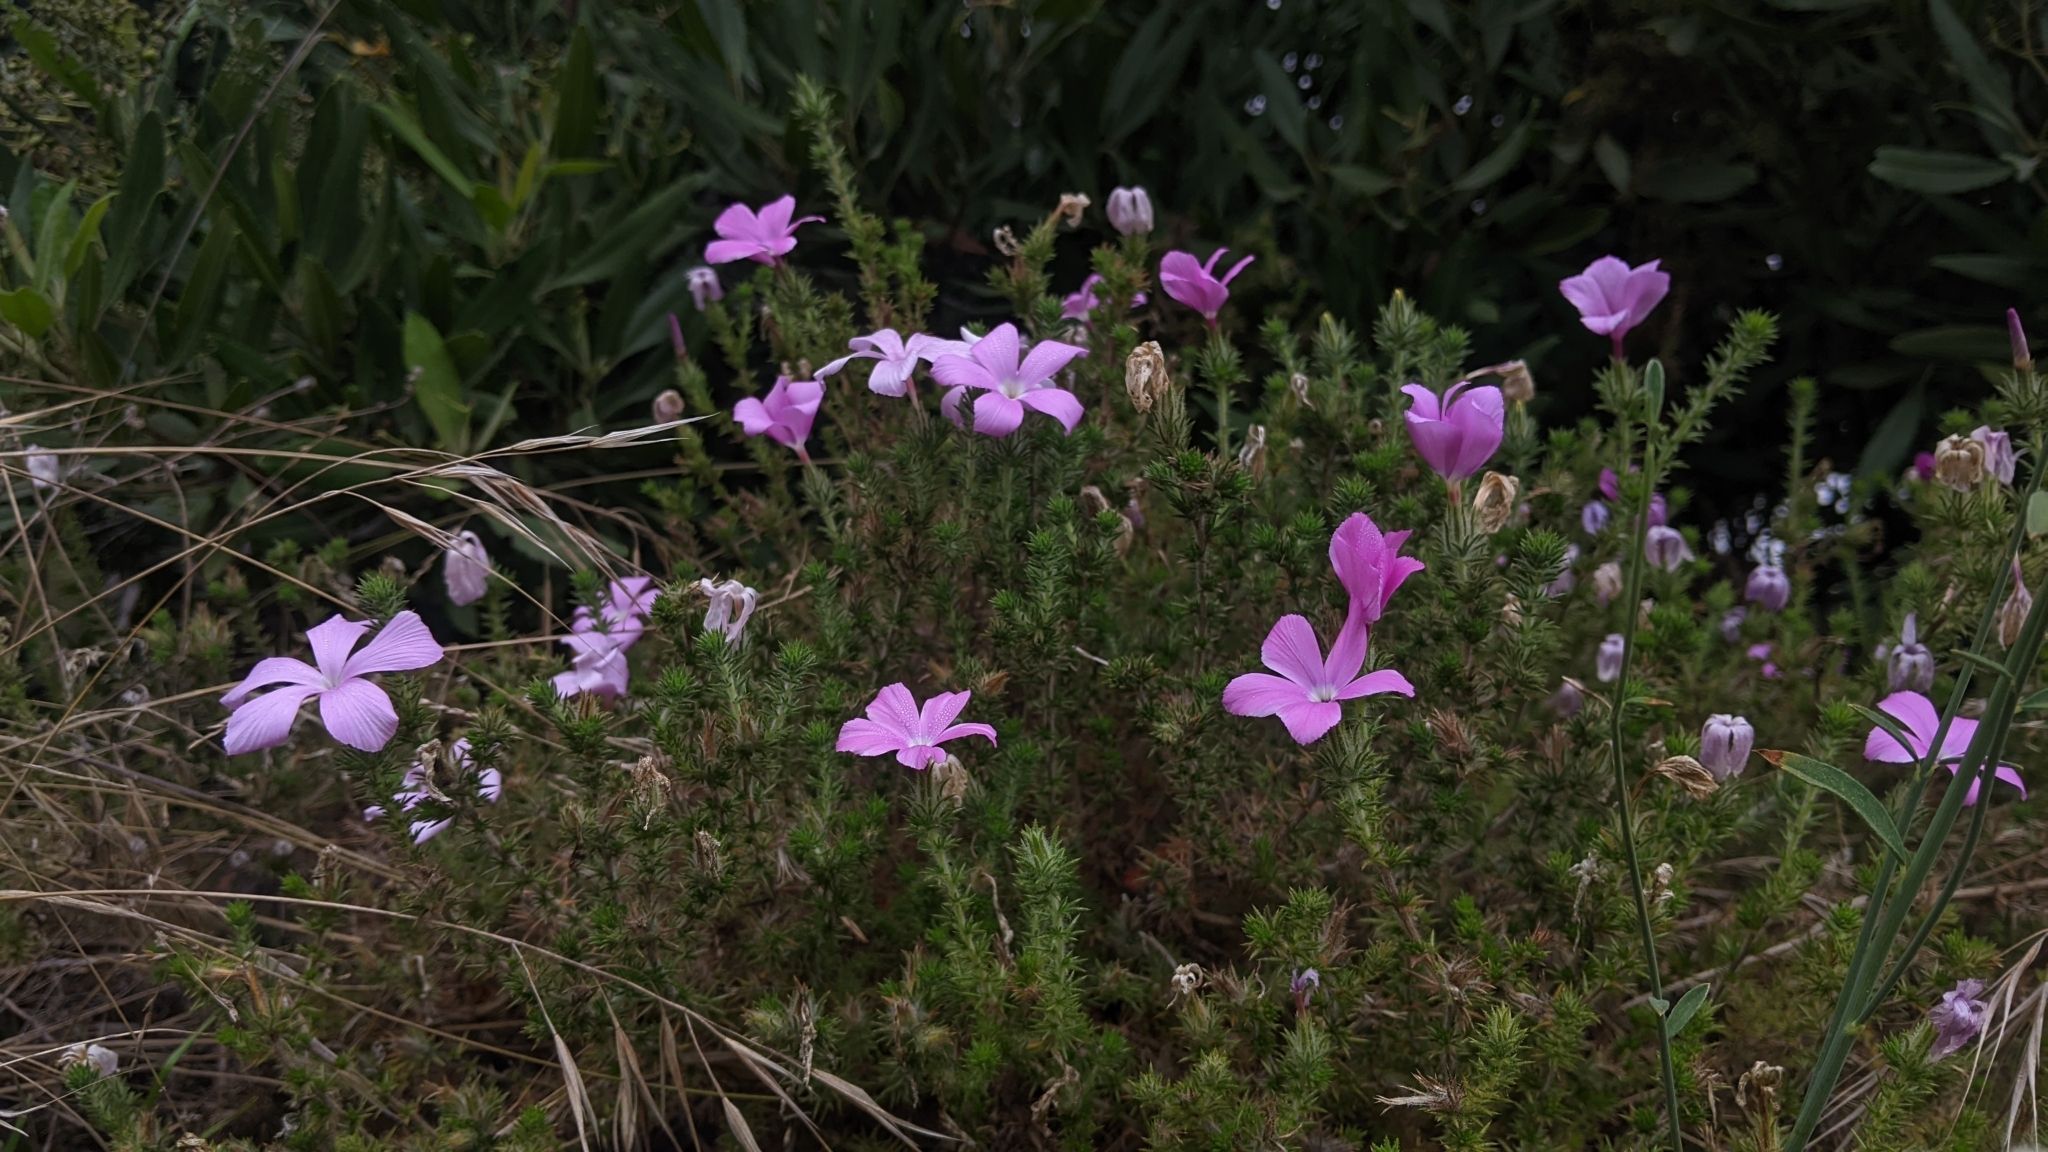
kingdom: Plantae
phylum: Tracheophyta
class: Magnoliopsida
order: Ericales
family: Polemoniaceae
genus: Linanthus
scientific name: Linanthus californicus
